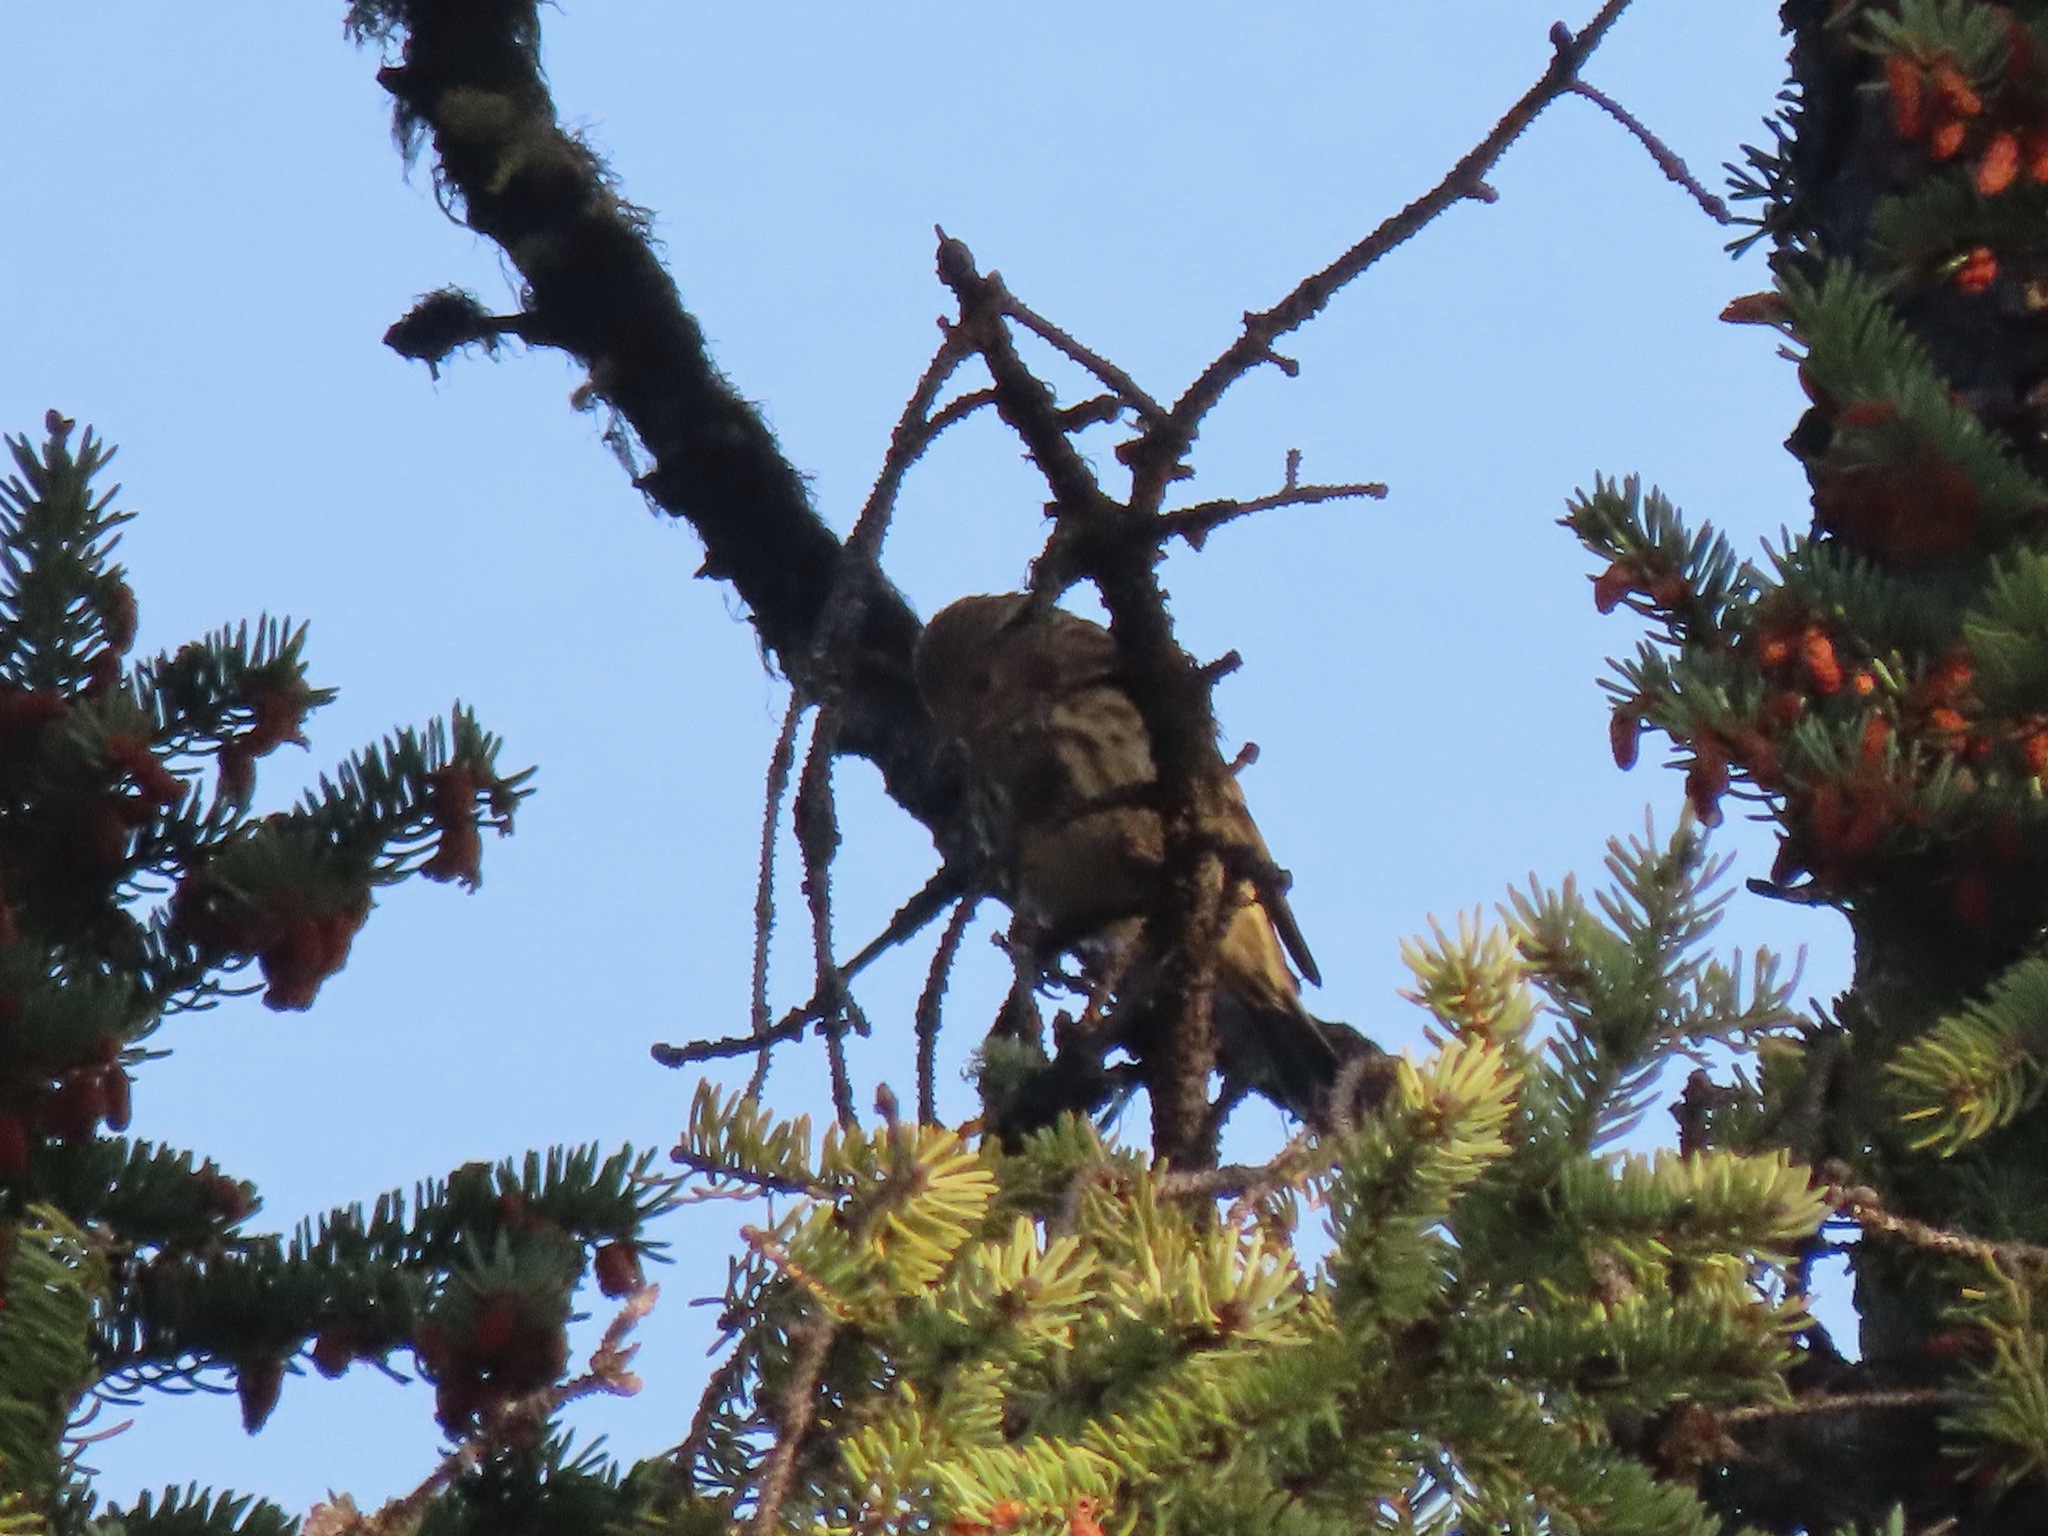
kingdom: Animalia
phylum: Chordata
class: Aves
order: Passeriformes
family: Fringillidae
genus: Spinus
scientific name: Spinus pinus
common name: Pine siskin
